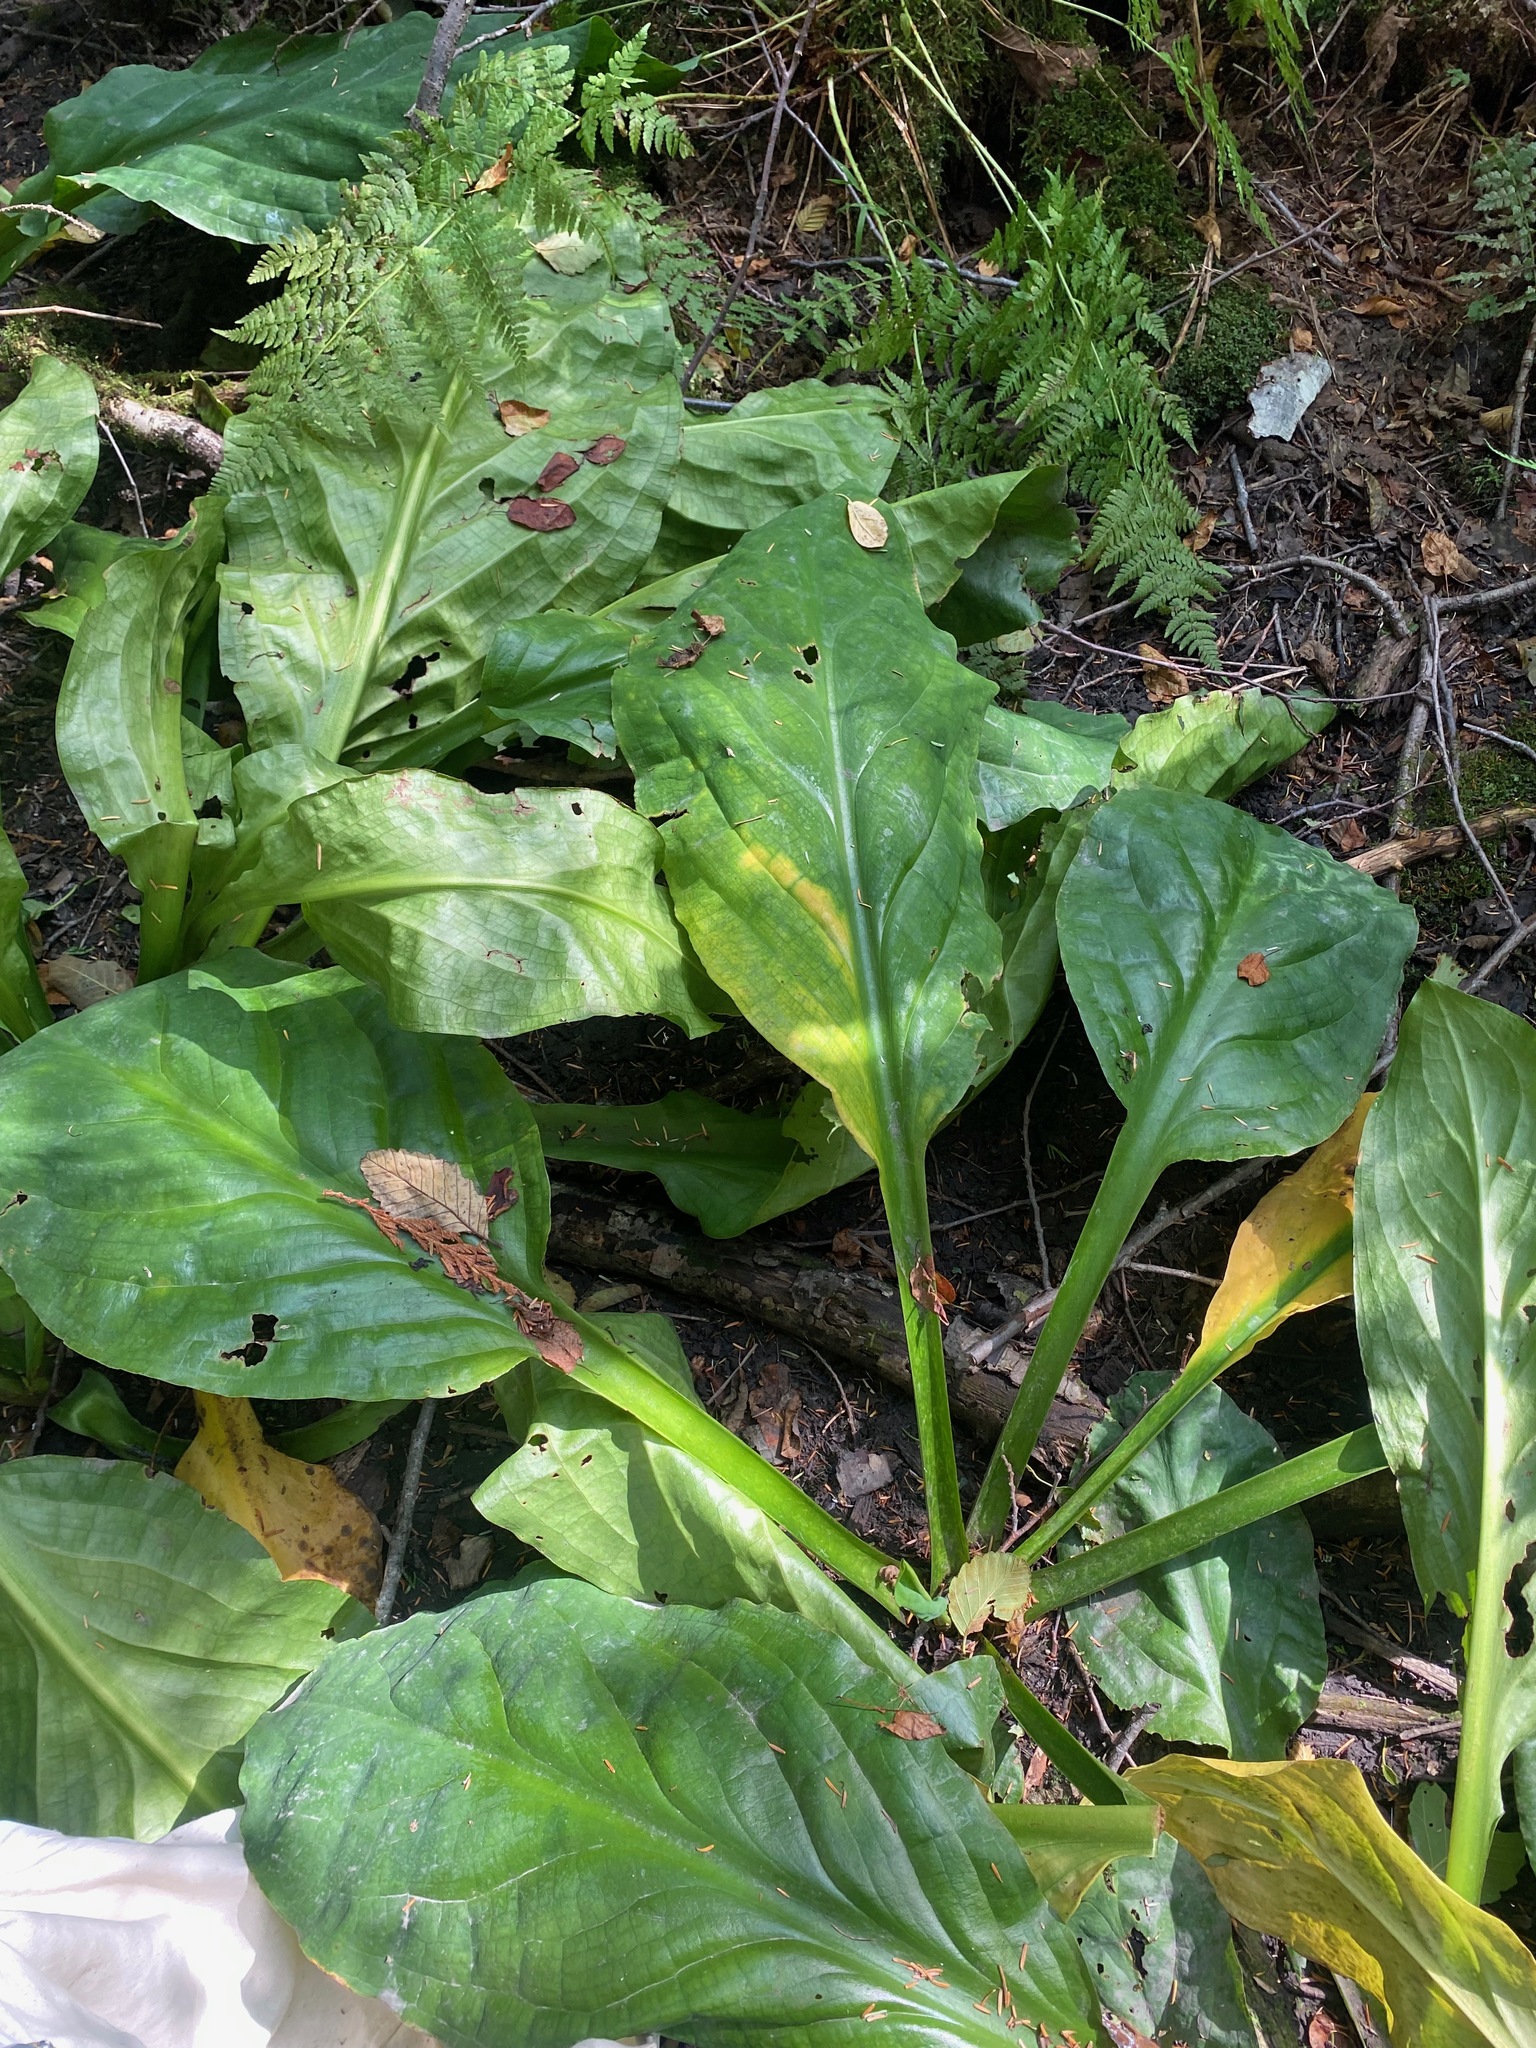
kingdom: Plantae
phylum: Tracheophyta
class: Liliopsida
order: Alismatales
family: Araceae
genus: Lysichiton
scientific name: Lysichiton americanus
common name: American skunk cabbage
